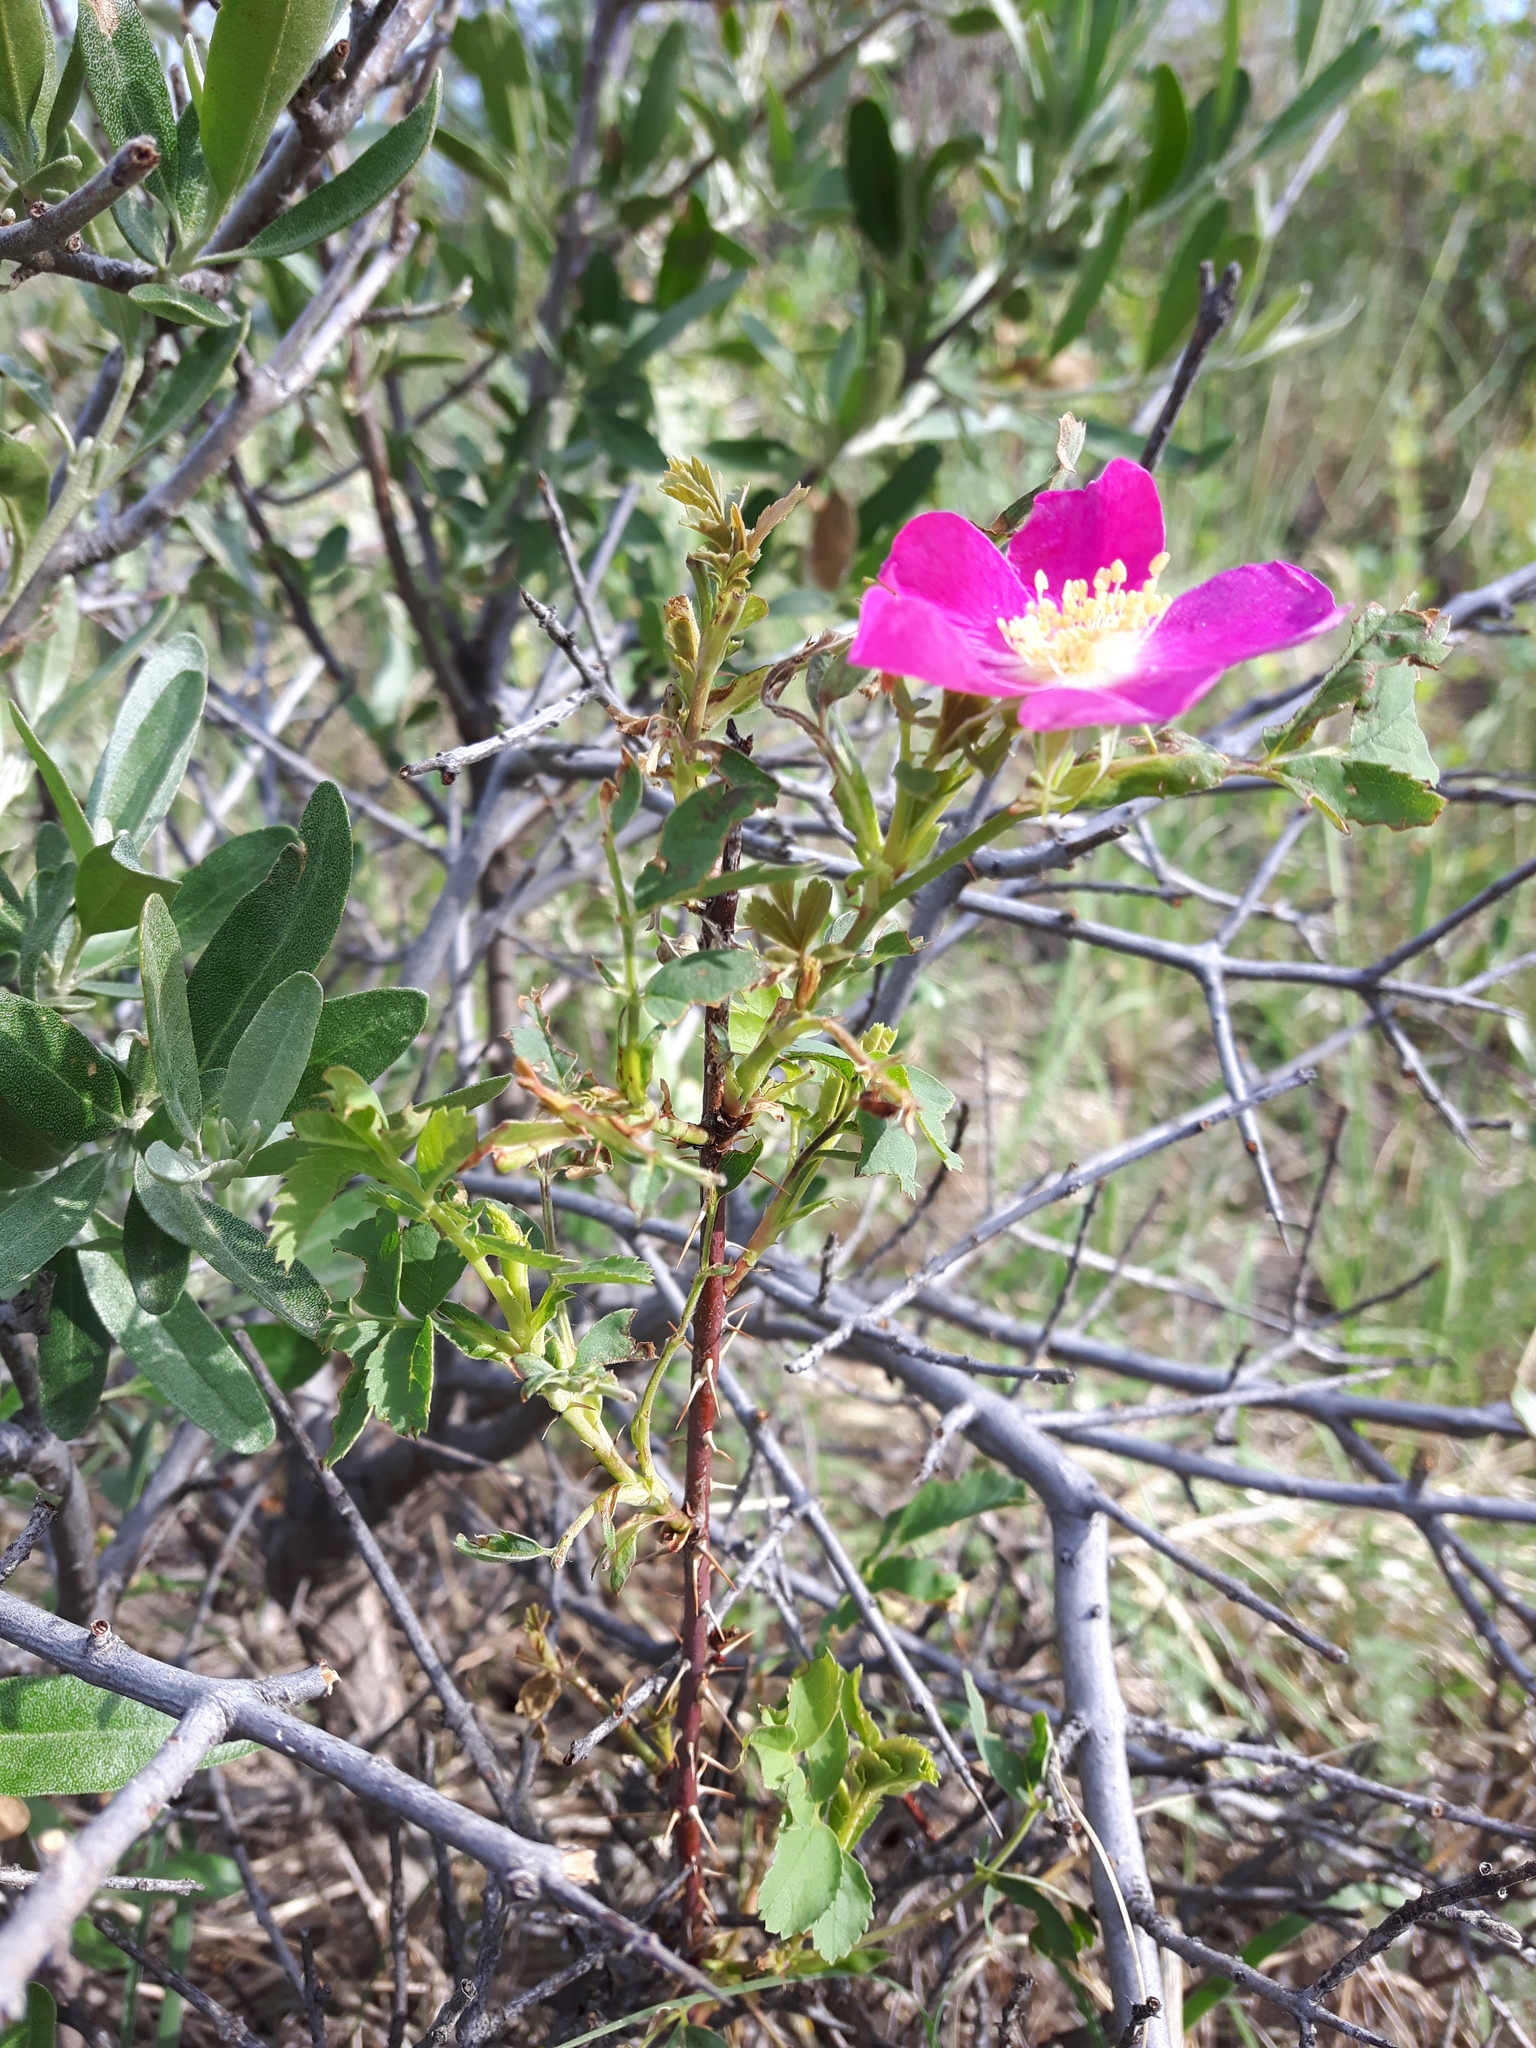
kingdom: Plantae
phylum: Tracheophyta
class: Magnoliopsida
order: Rosales
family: Rosaceae
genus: Rosa
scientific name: Rosa woodsii
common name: Woods's rose
